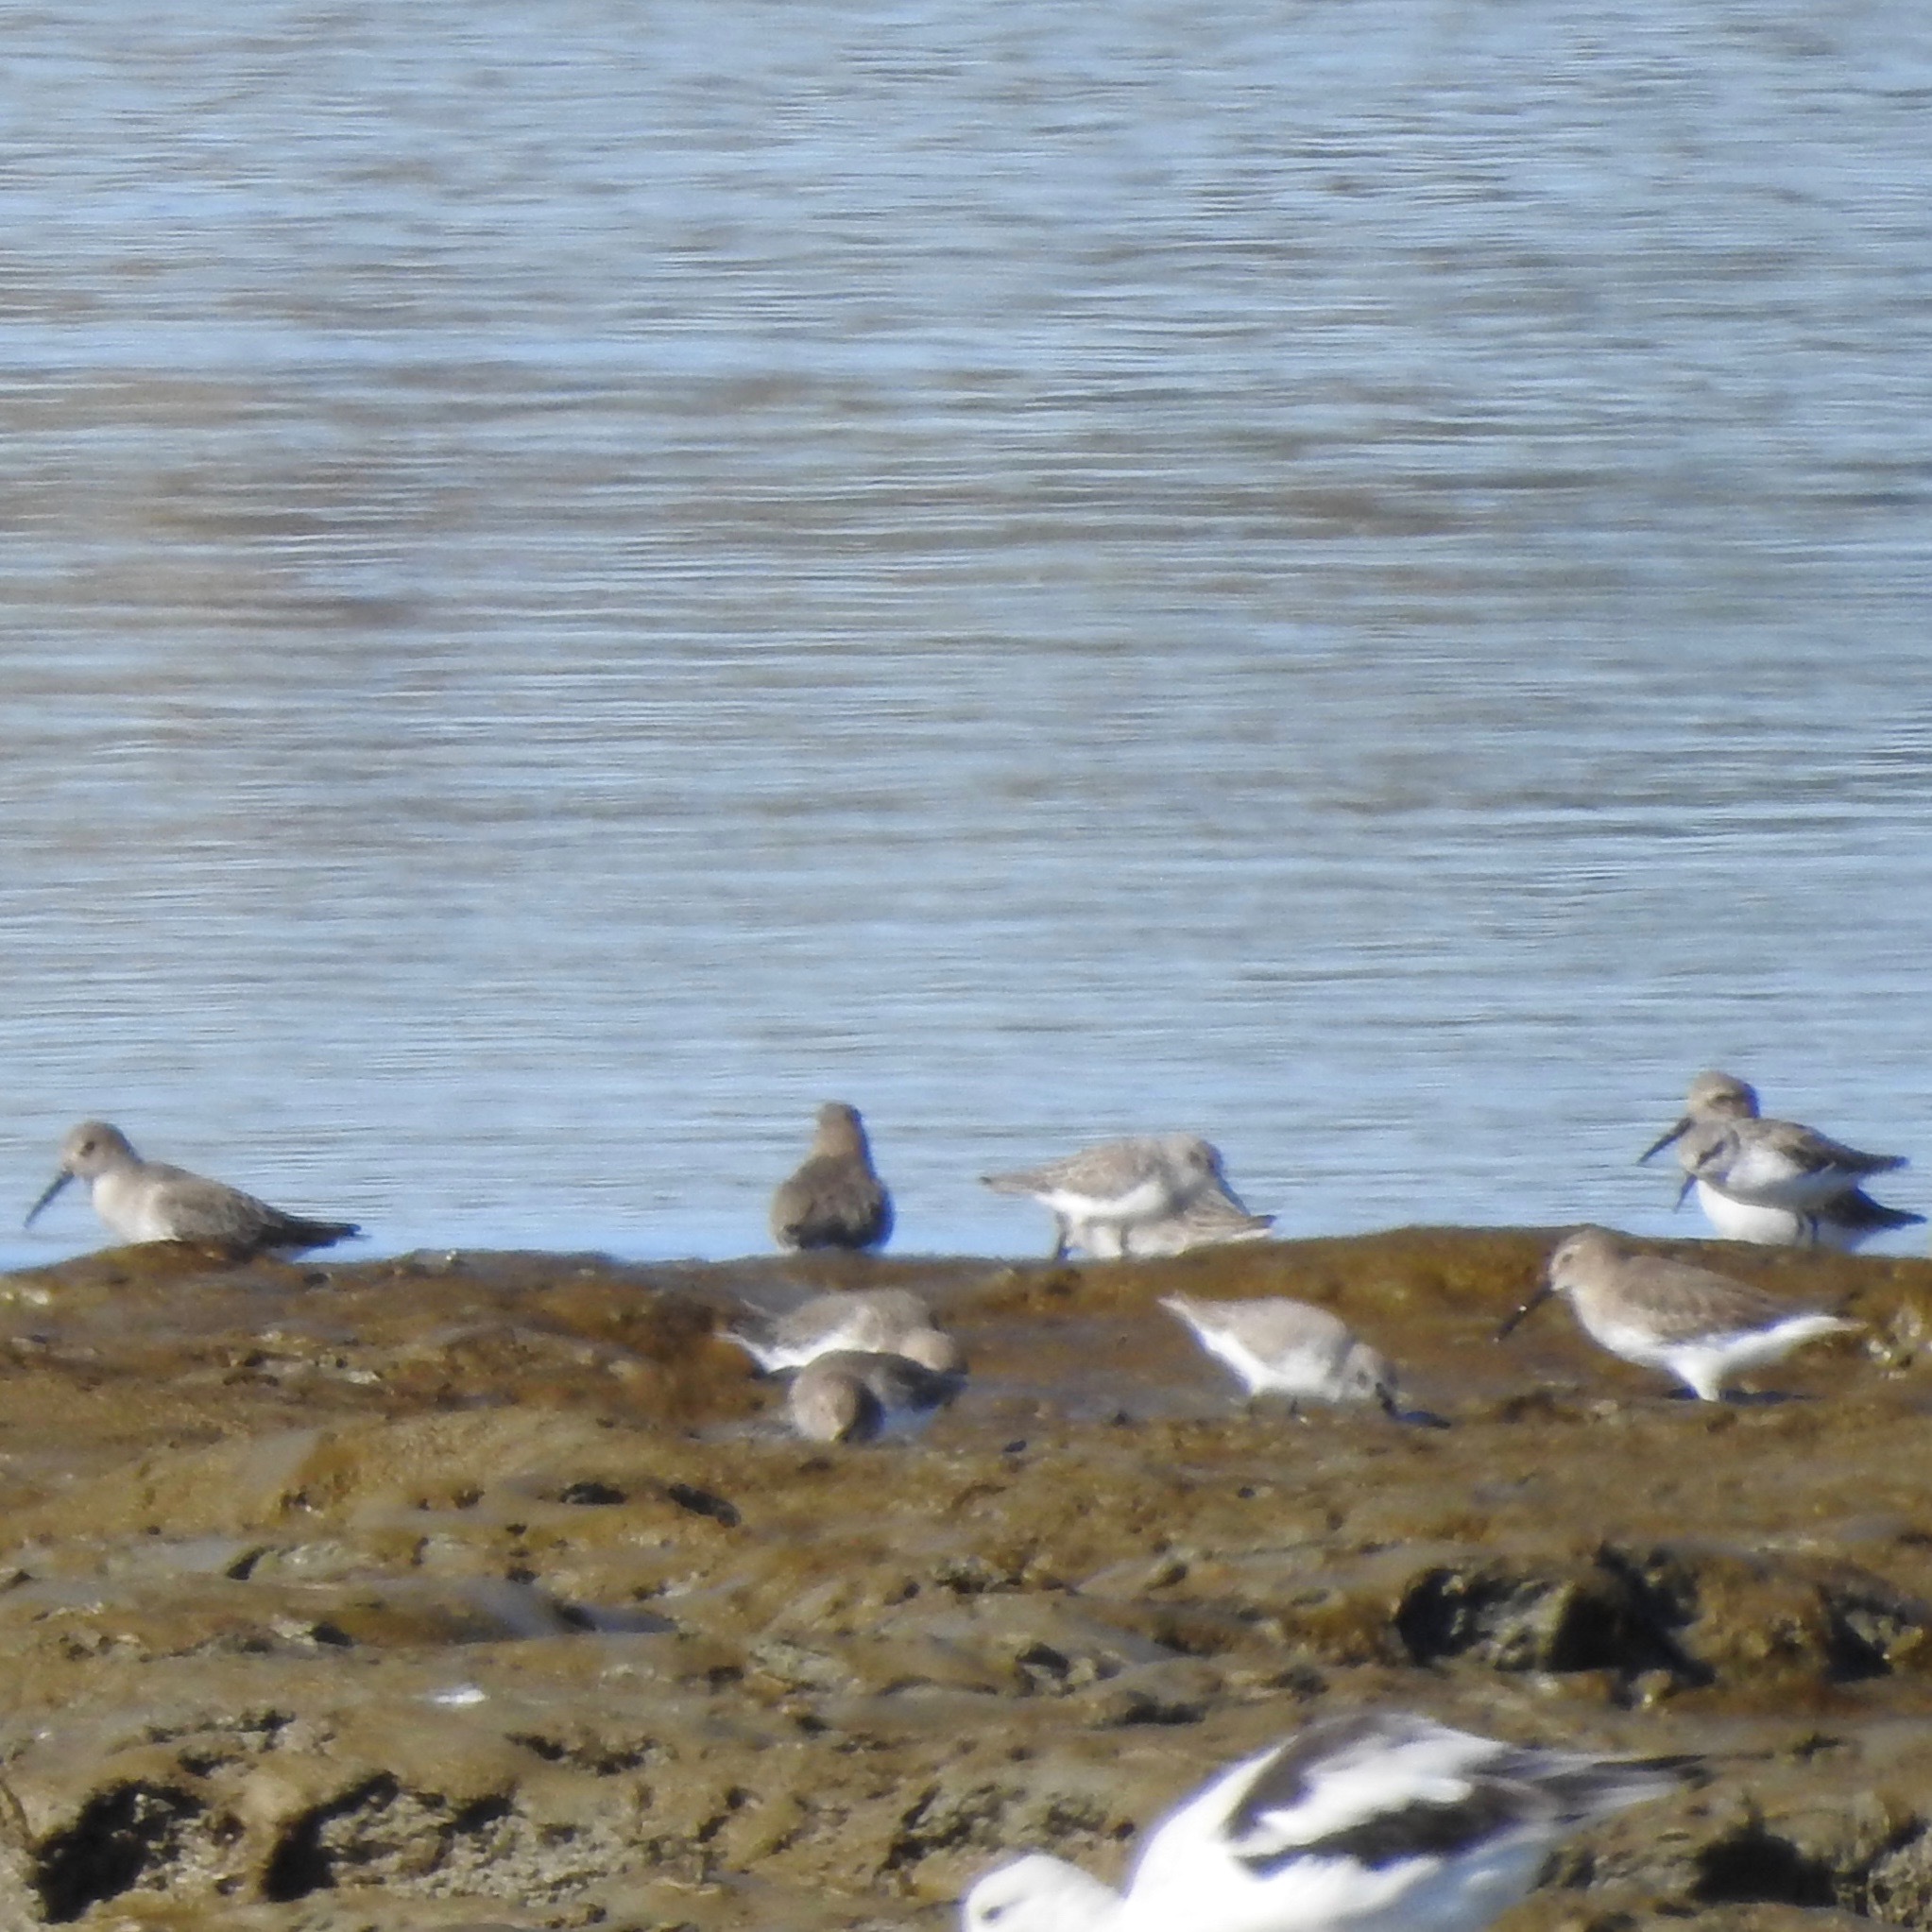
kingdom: Animalia
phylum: Chordata
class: Aves
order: Charadriiformes
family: Scolopacidae
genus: Calidris
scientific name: Calidris alpina
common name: Dunlin
